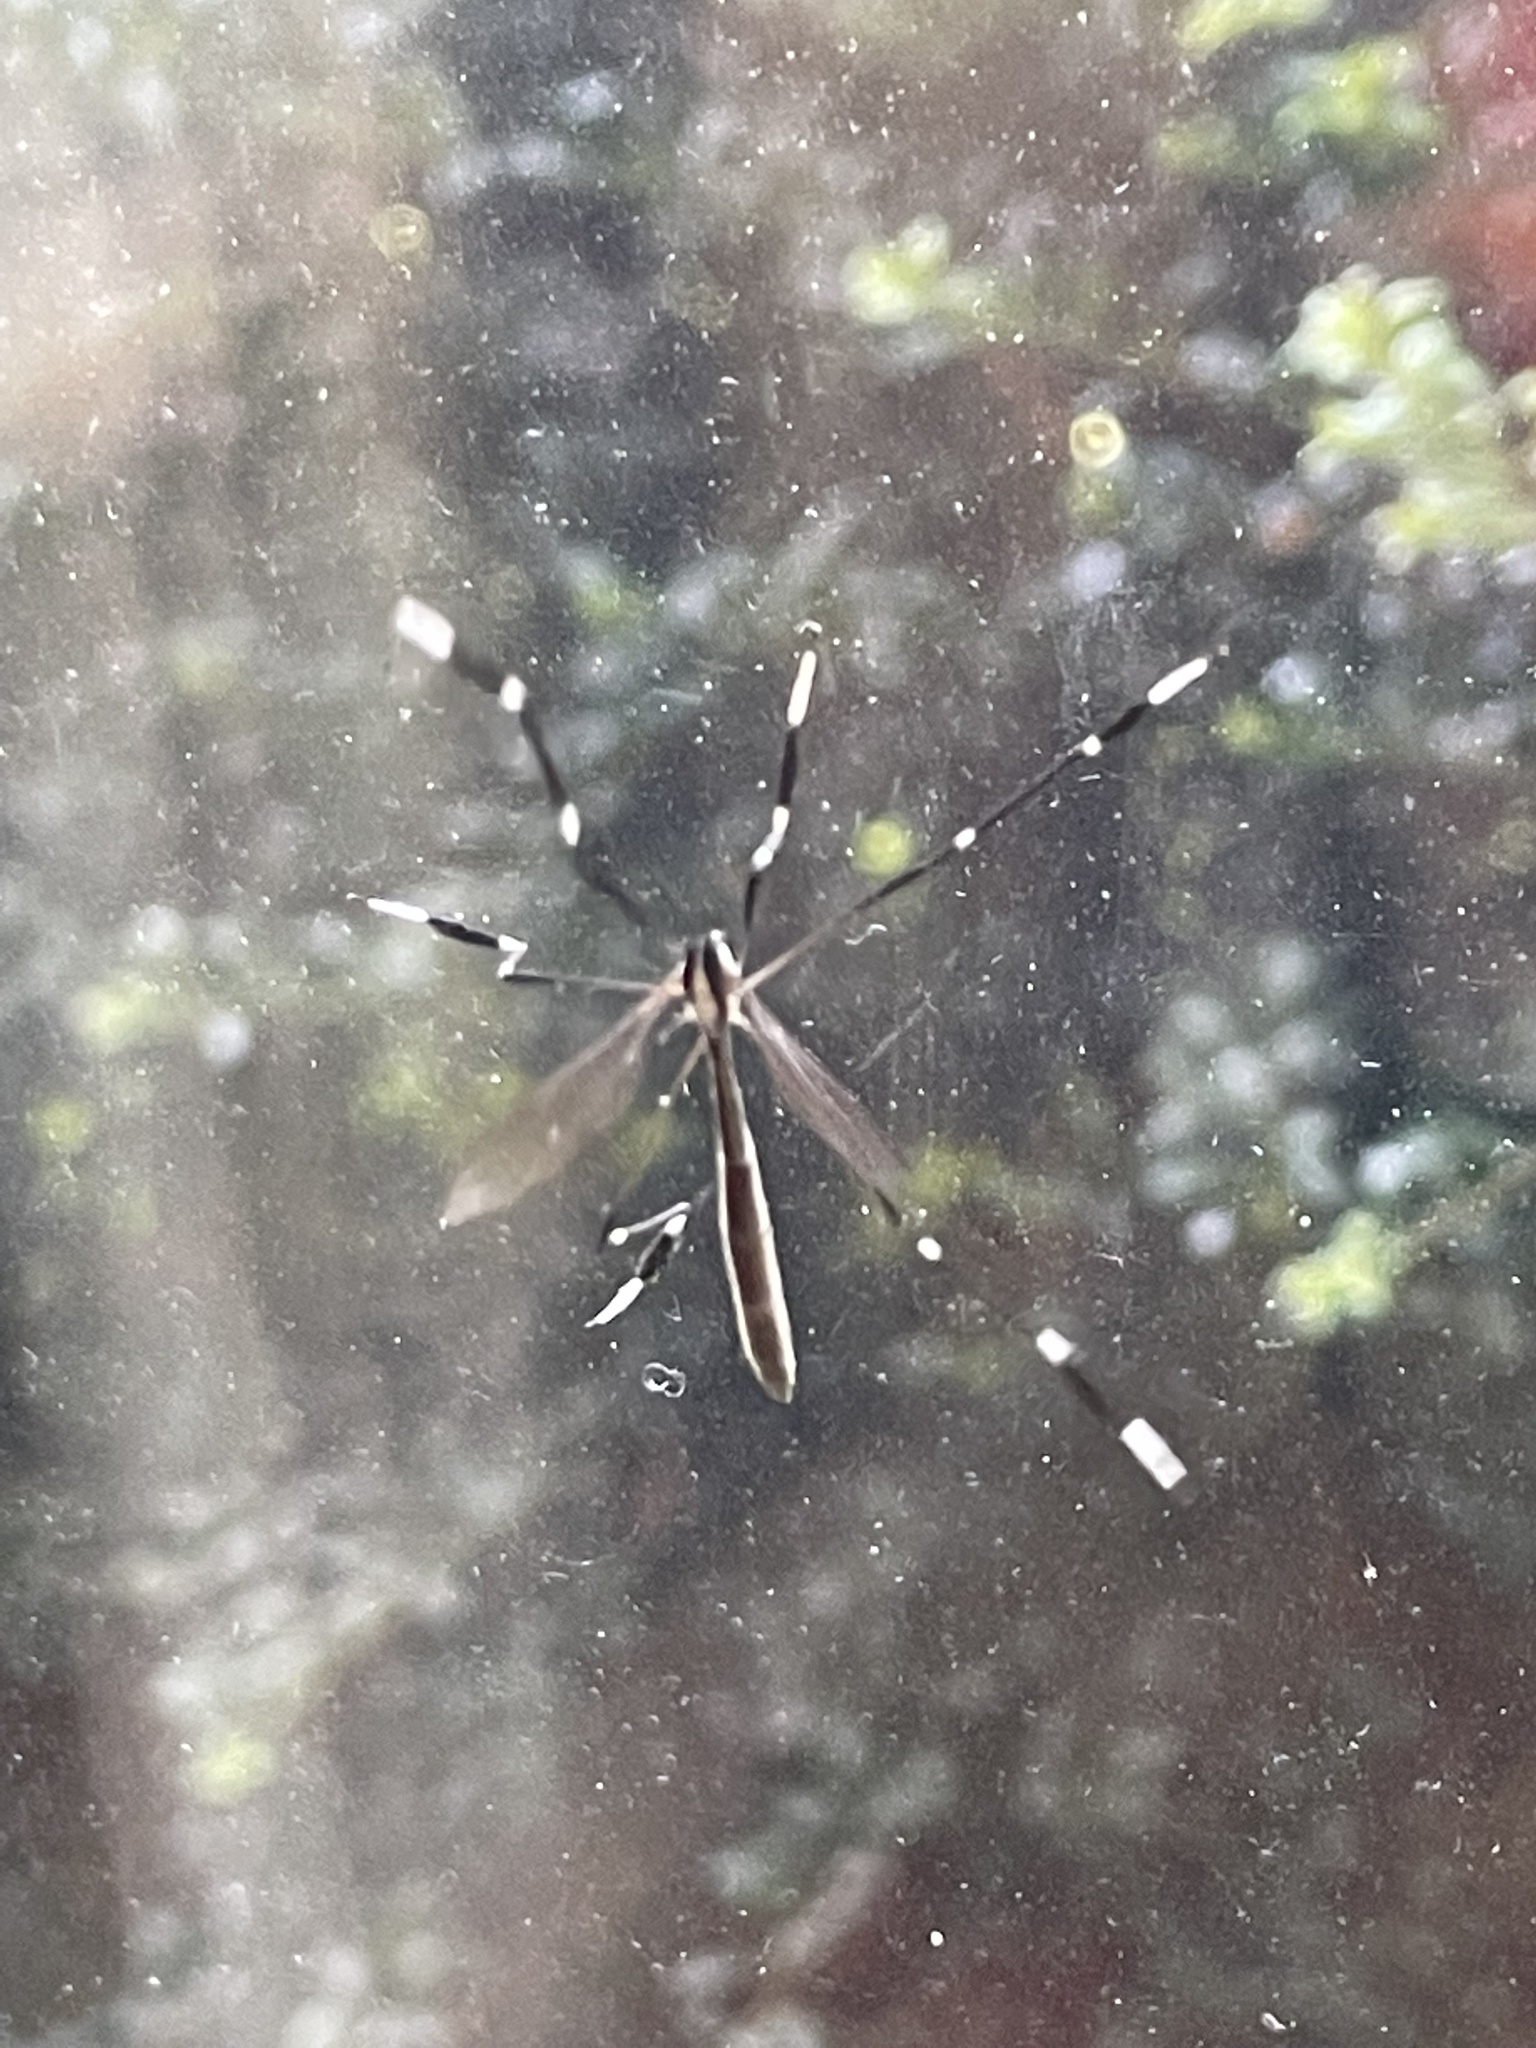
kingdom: Animalia
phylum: Arthropoda
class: Insecta
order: Diptera
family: Ptychopteridae
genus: Bittacomorpha
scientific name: Bittacomorpha clavipes
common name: Eastern phantom crane fly
